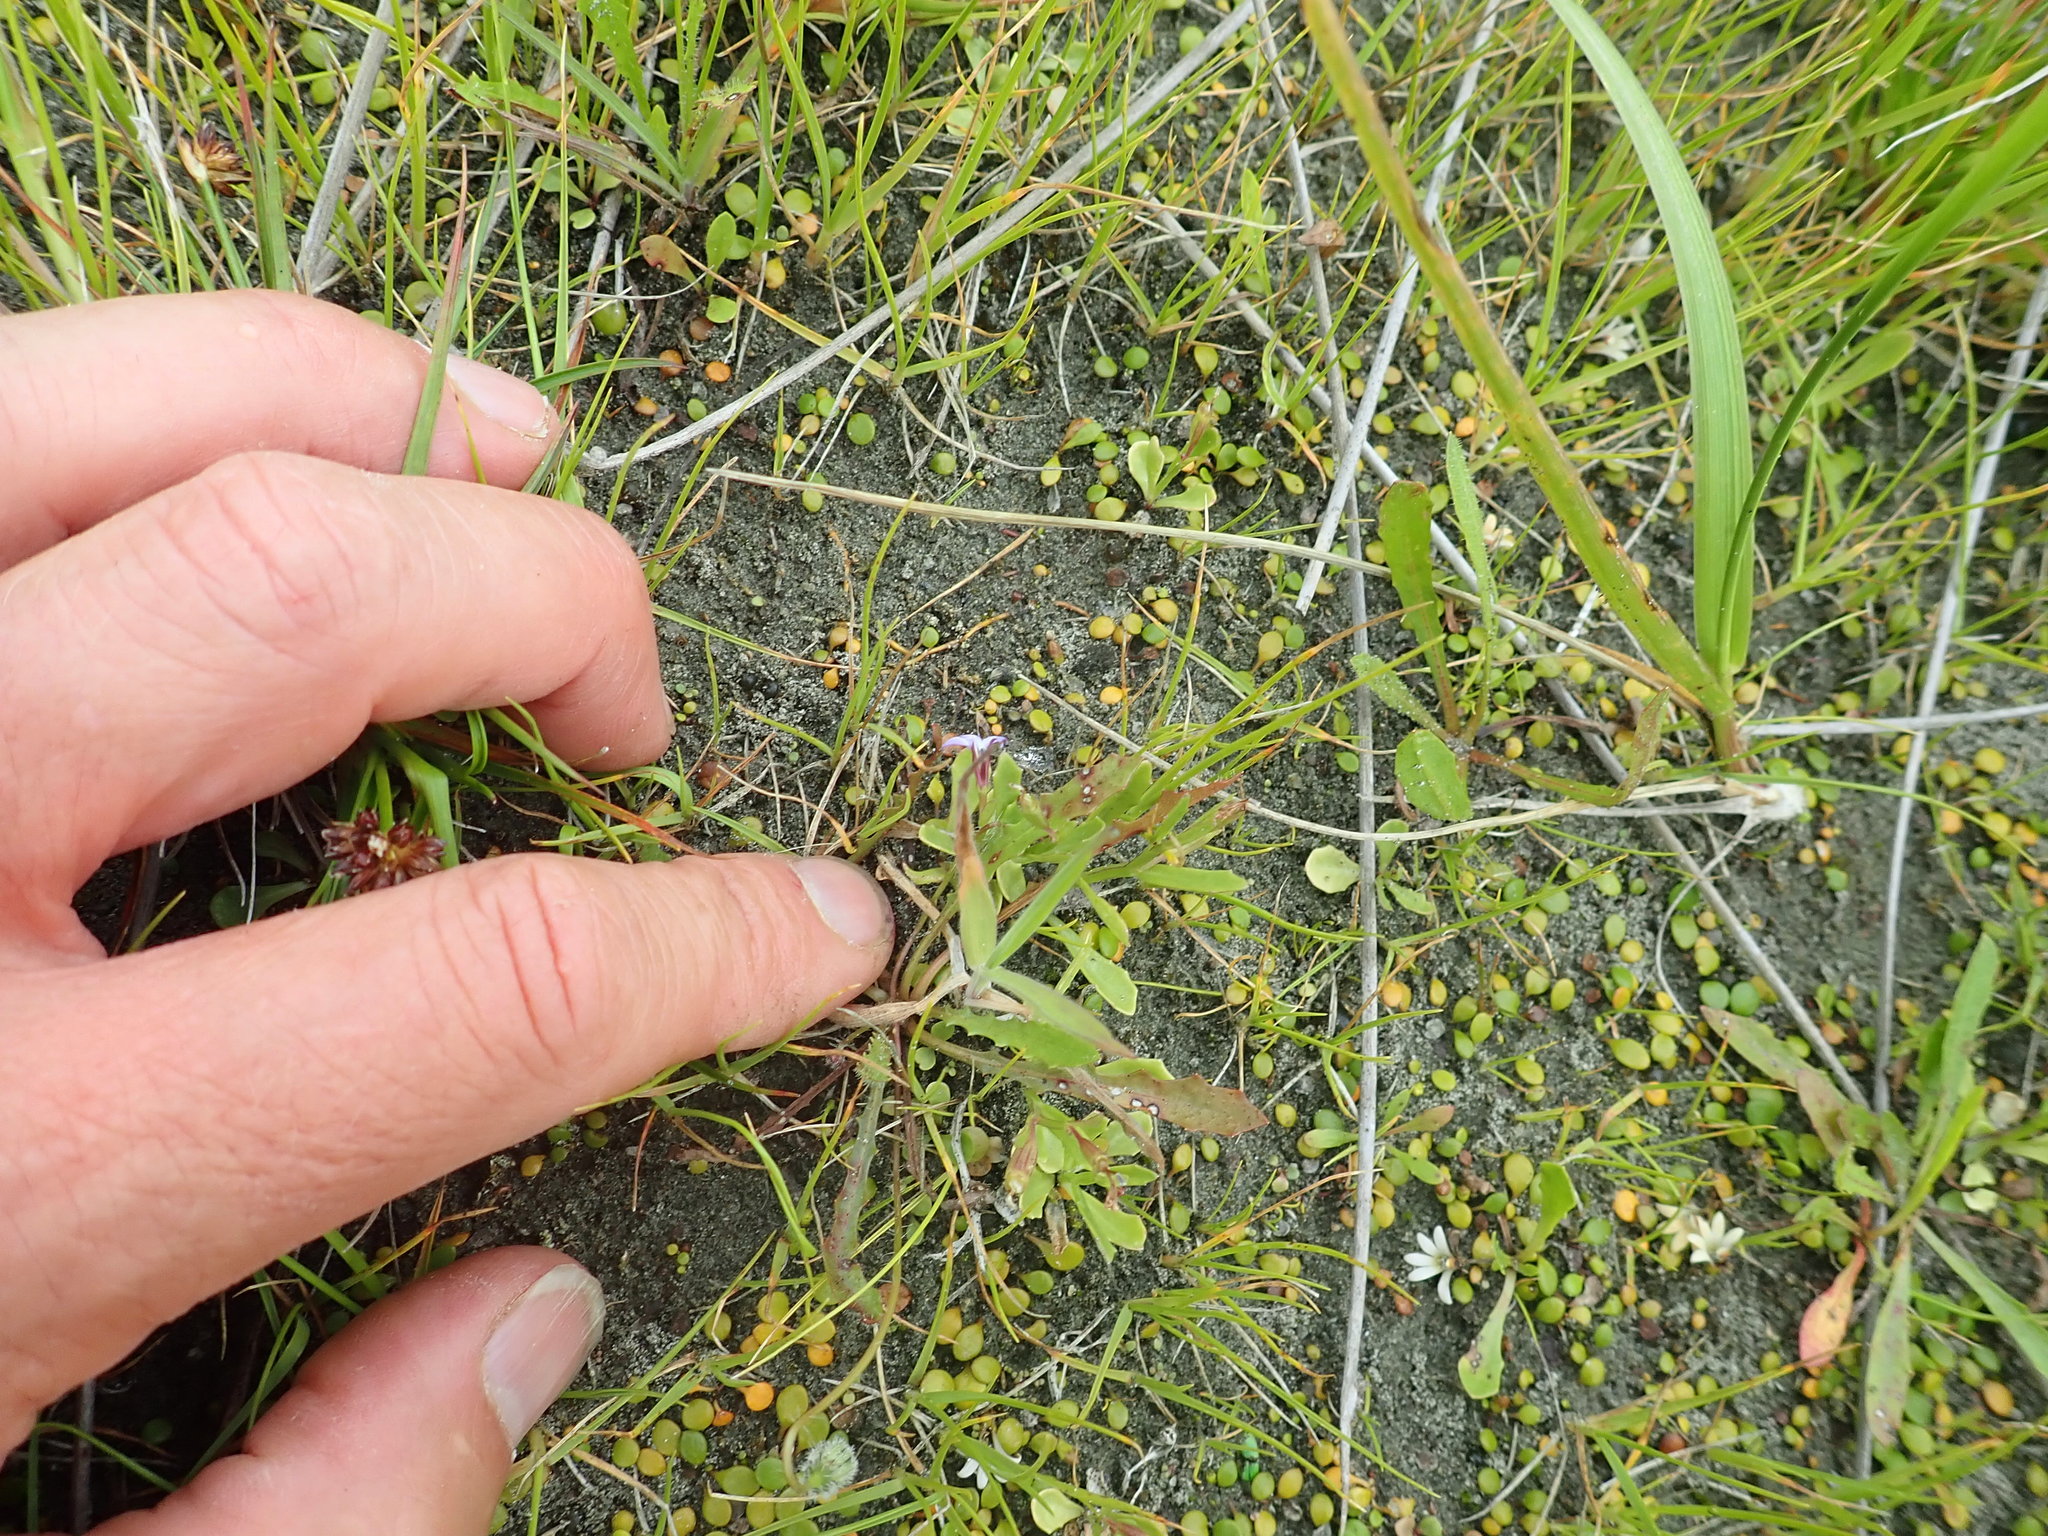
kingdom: Plantae
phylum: Tracheophyta
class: Magnoliopsida
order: Asterales
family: Campanulaceae
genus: Lobelia
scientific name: Lobelia anceps
